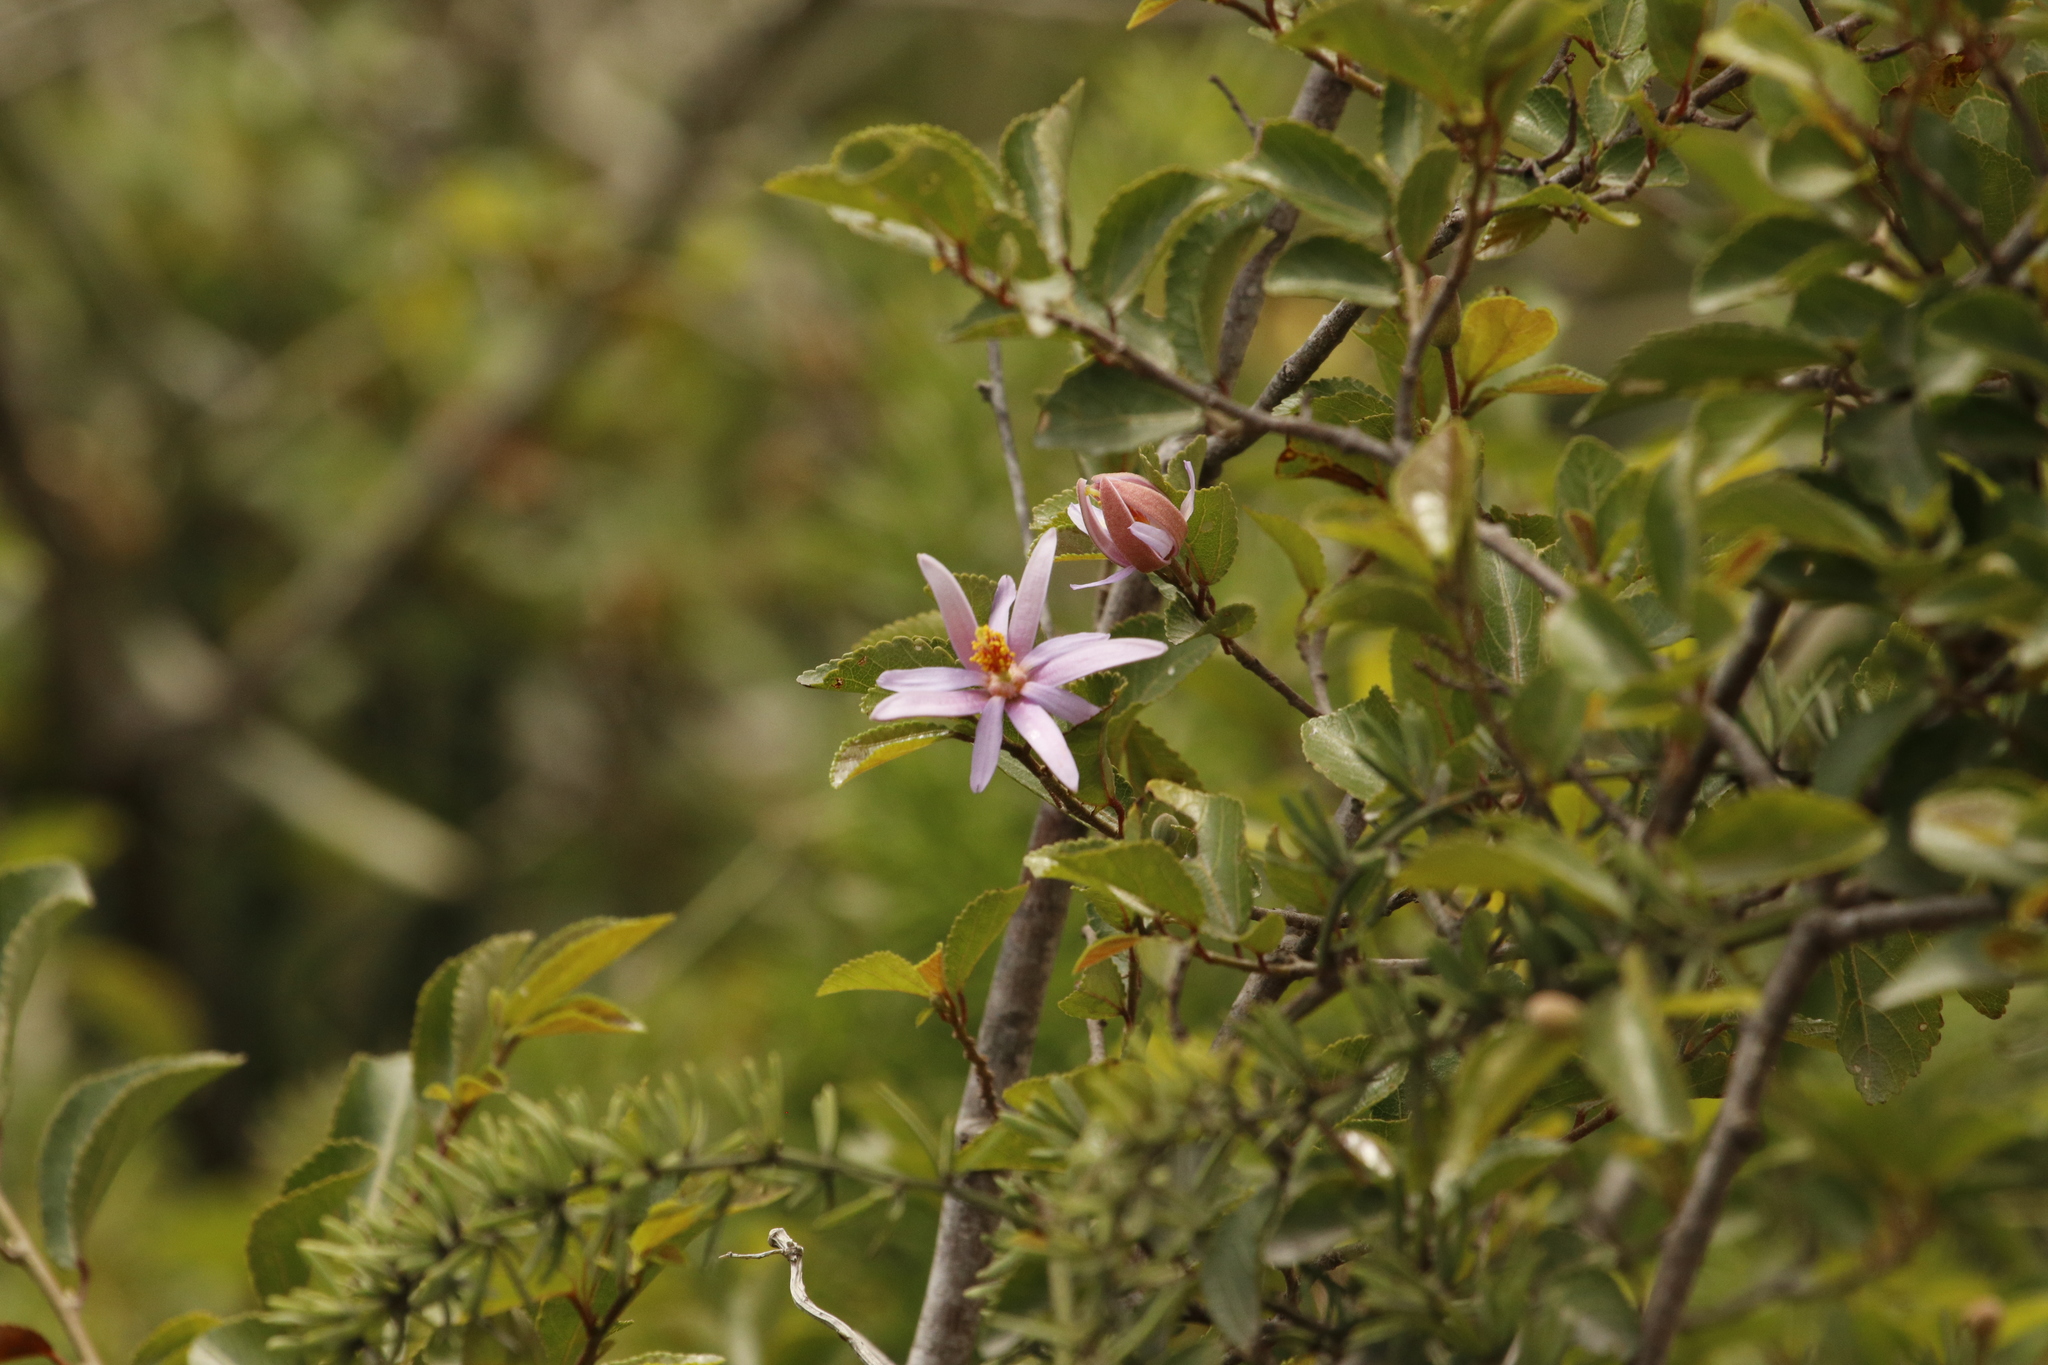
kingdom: Plantae
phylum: Tracheophyta
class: Magnoliopsida
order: Malvales
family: Malvaceae
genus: Grewia
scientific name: Grewia occidentalis
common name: Crossberry
